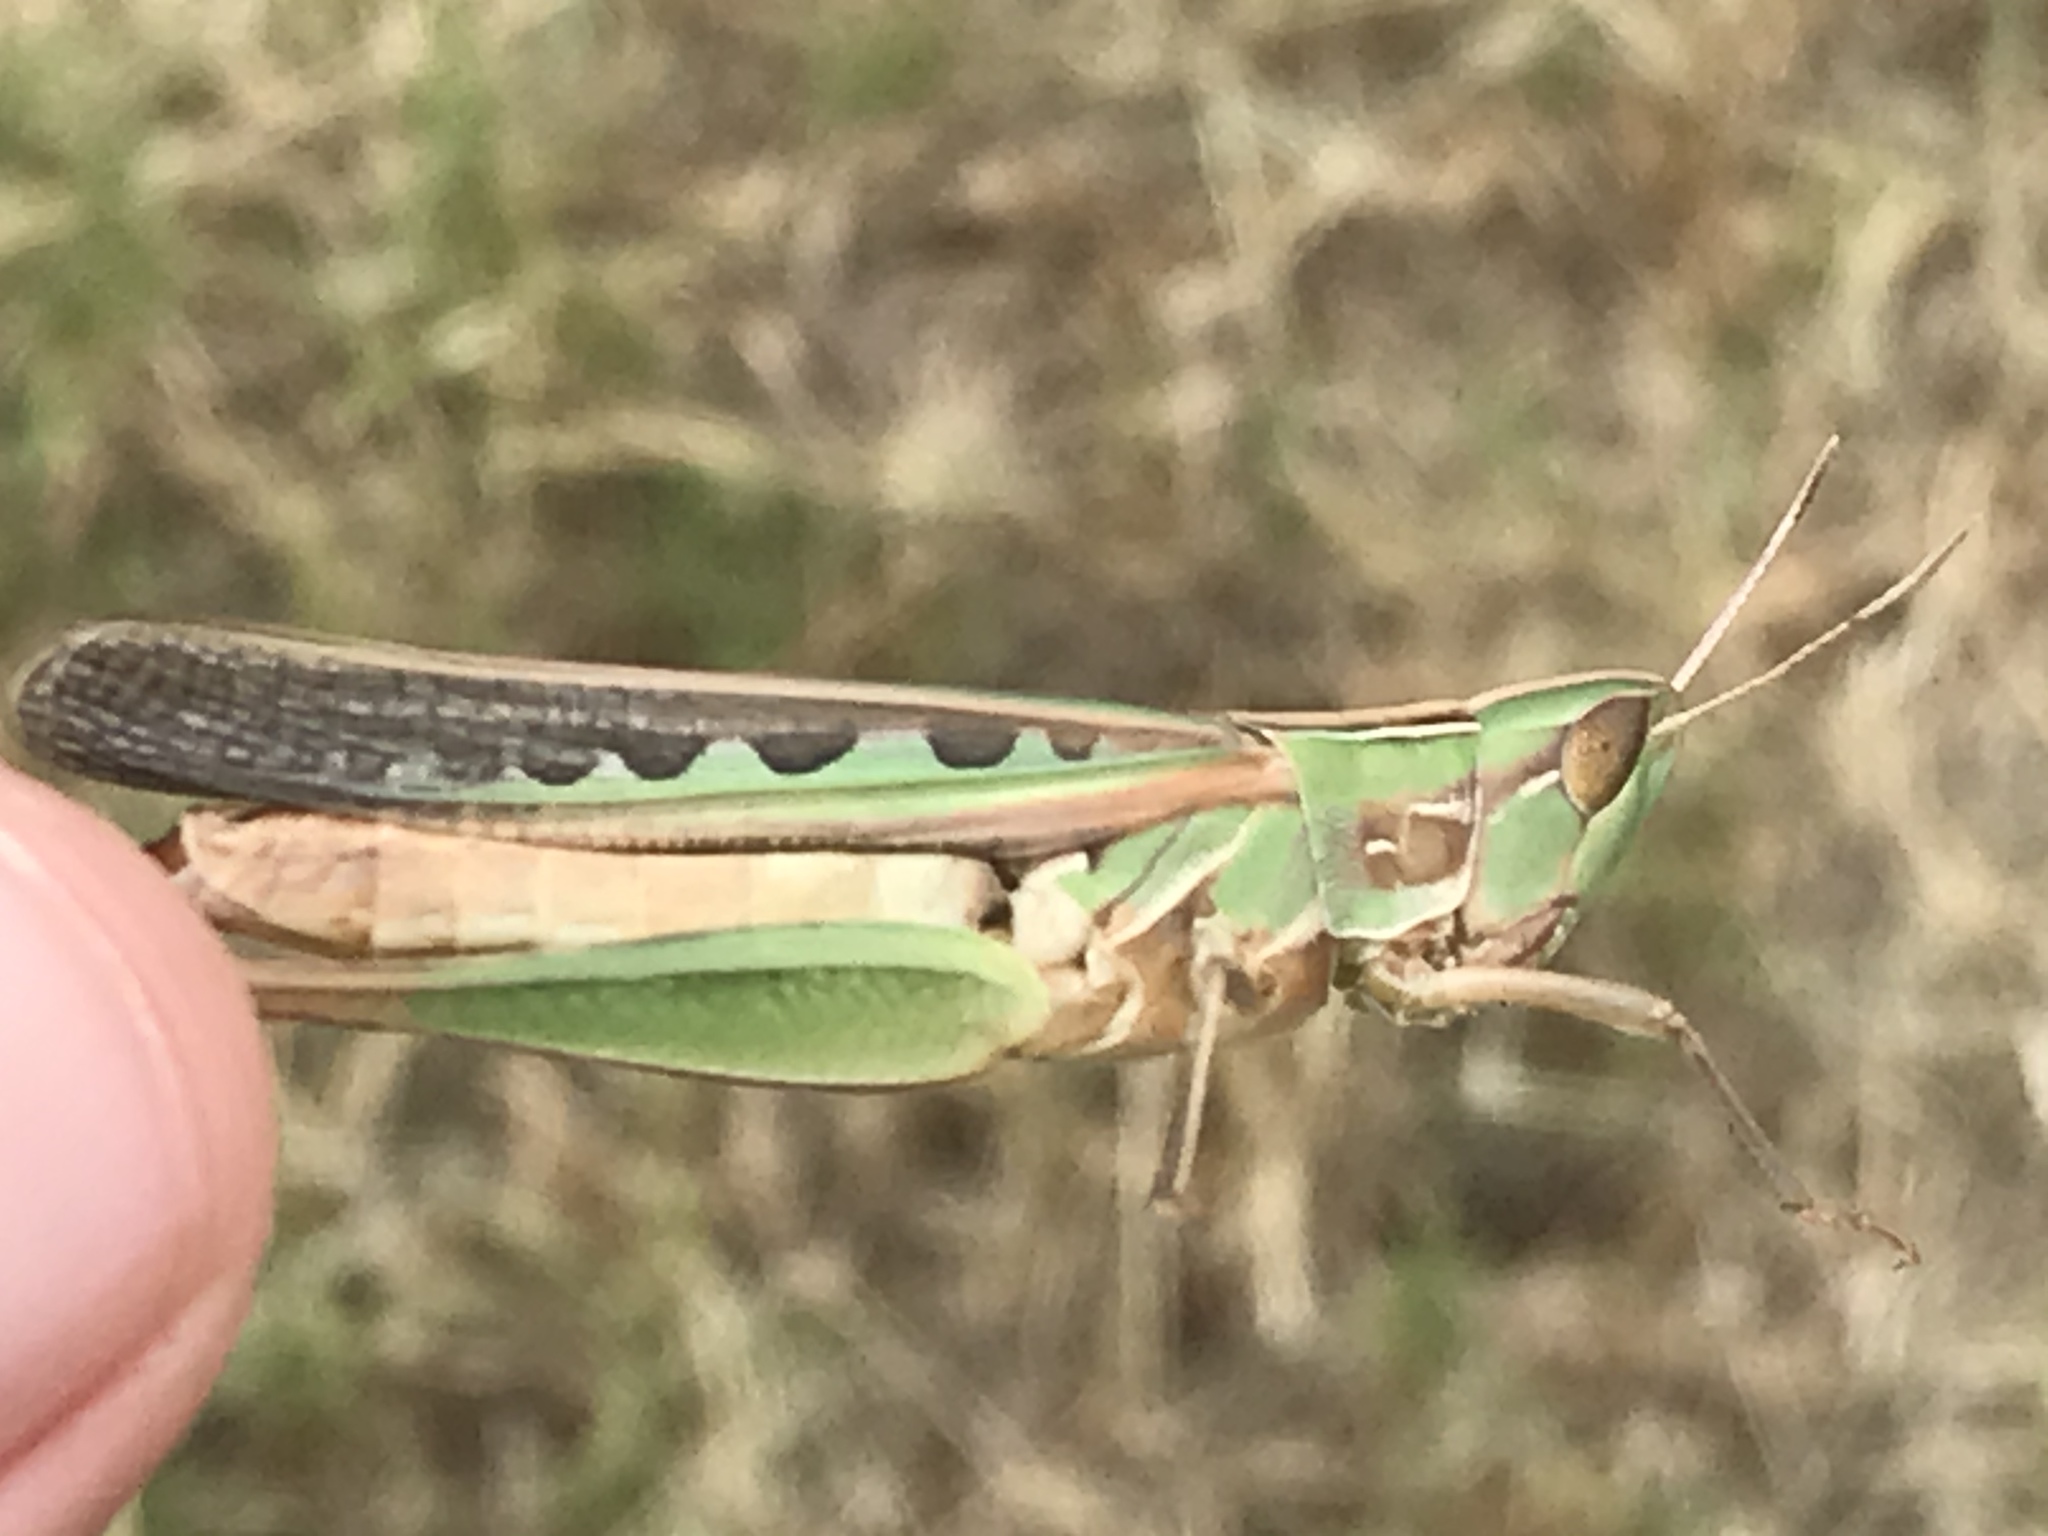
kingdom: Animalia
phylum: Arthropoda
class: Insecta
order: Orthoptera
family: Acrididae
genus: Syrbula
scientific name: Syrbula admirabilis
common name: Handsome grasshopper
